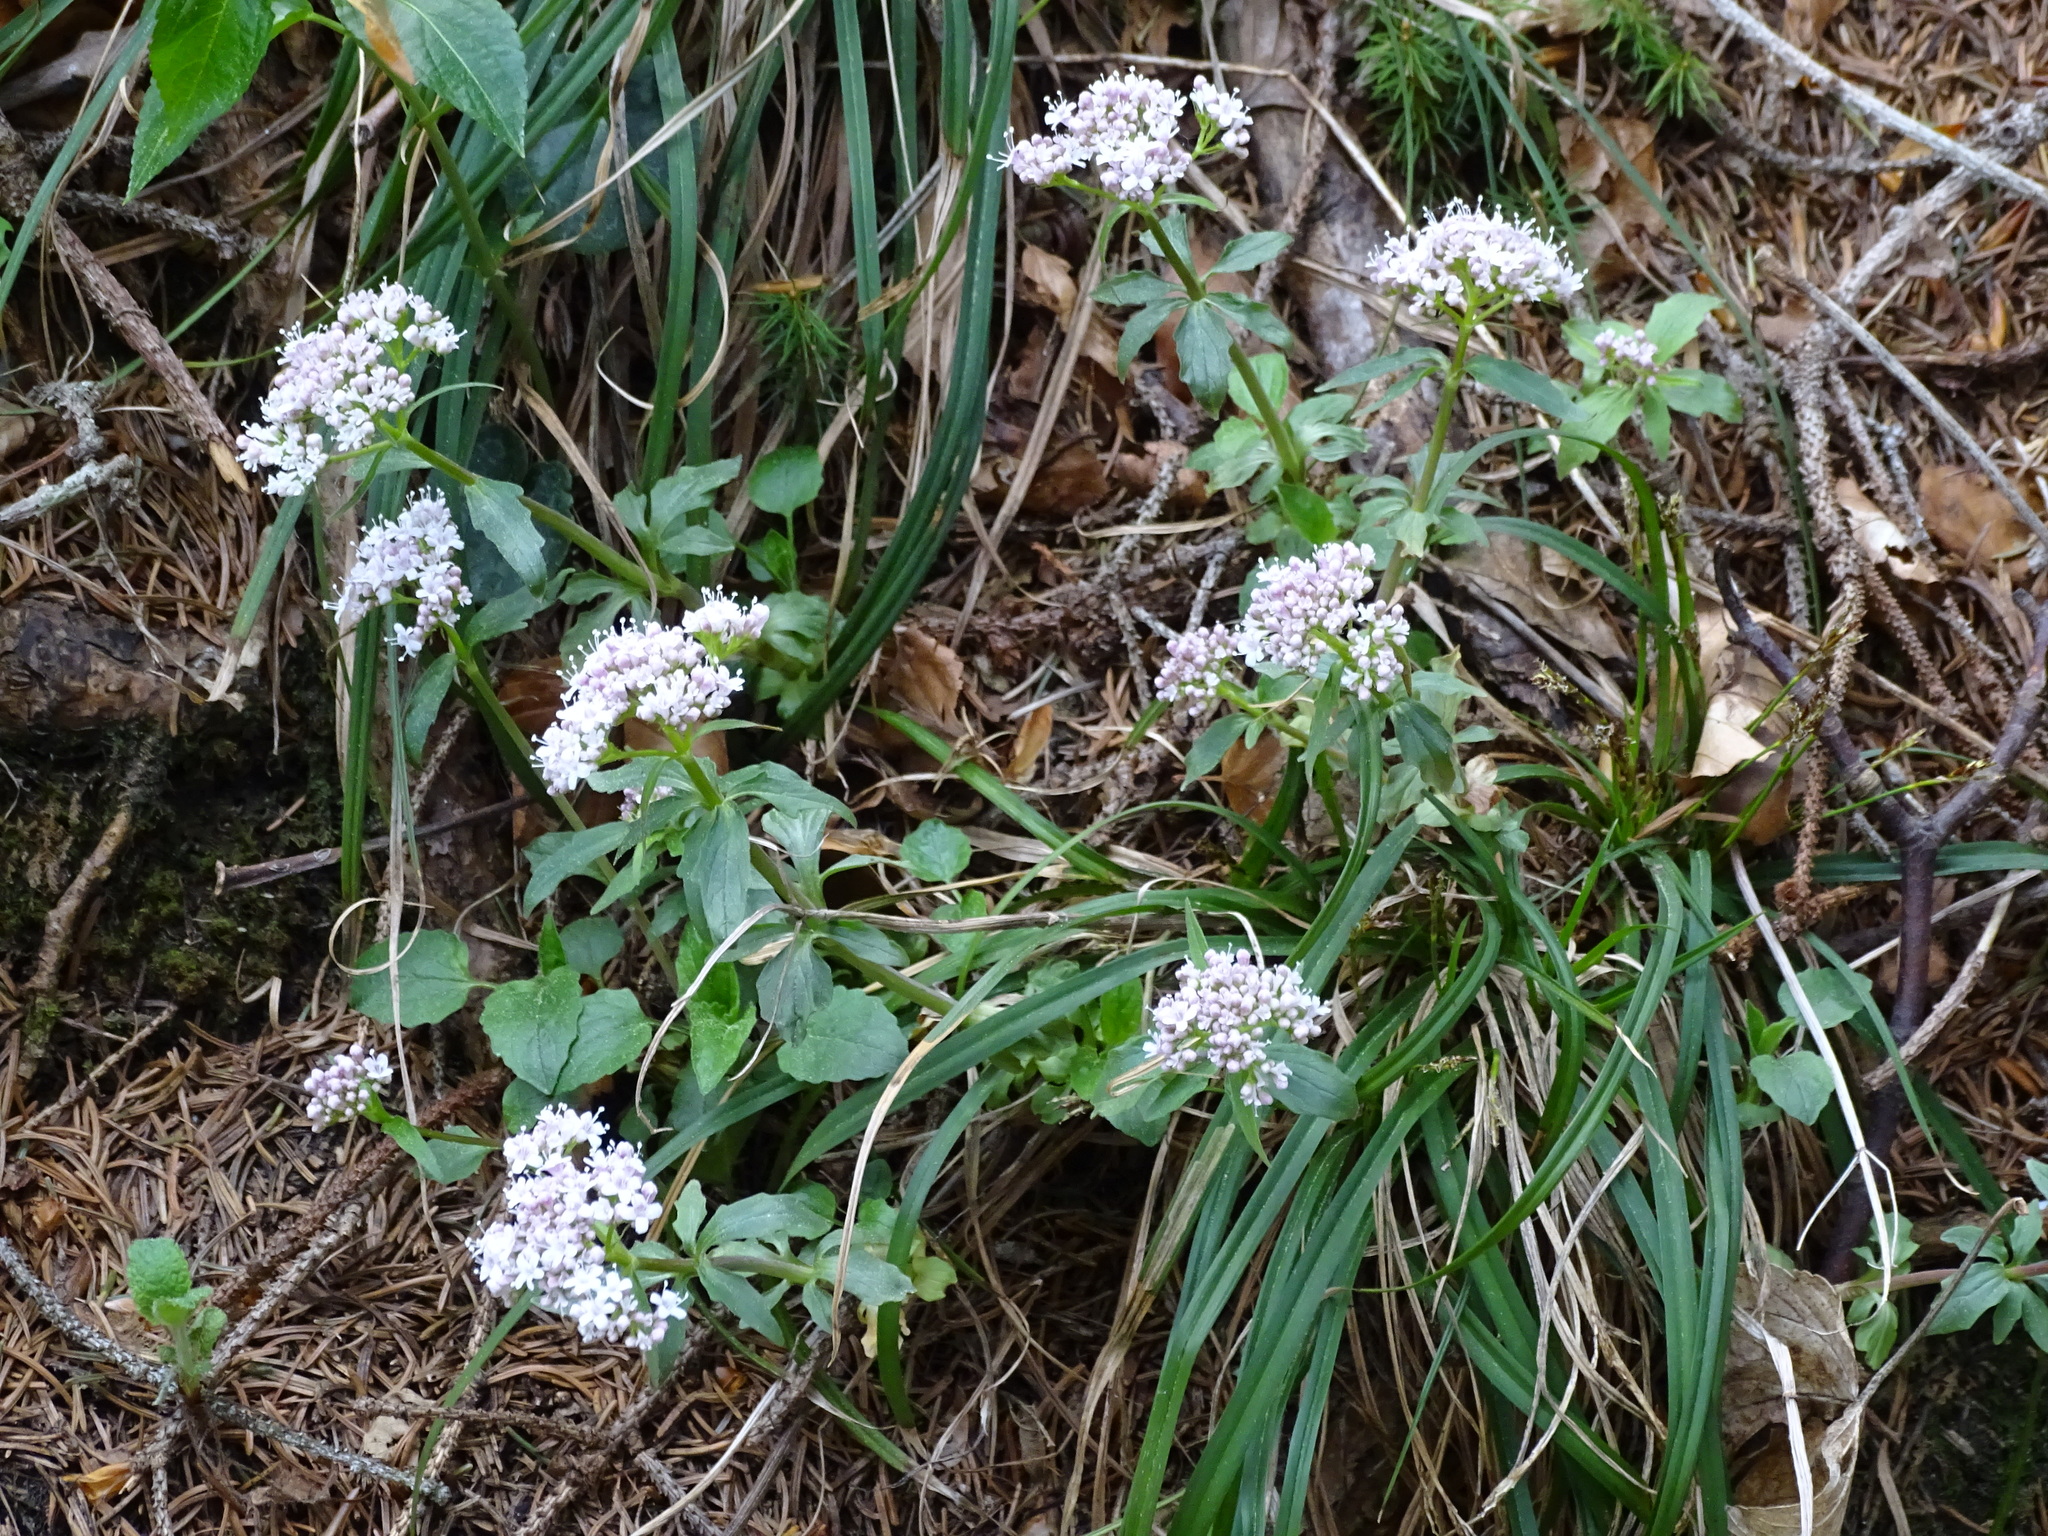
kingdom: Plantae
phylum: Tracheophyta
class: Magnoliopsida
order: Dipsacales
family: Caprifoliaceae
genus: Valeriana
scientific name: Valeriana tripteris
